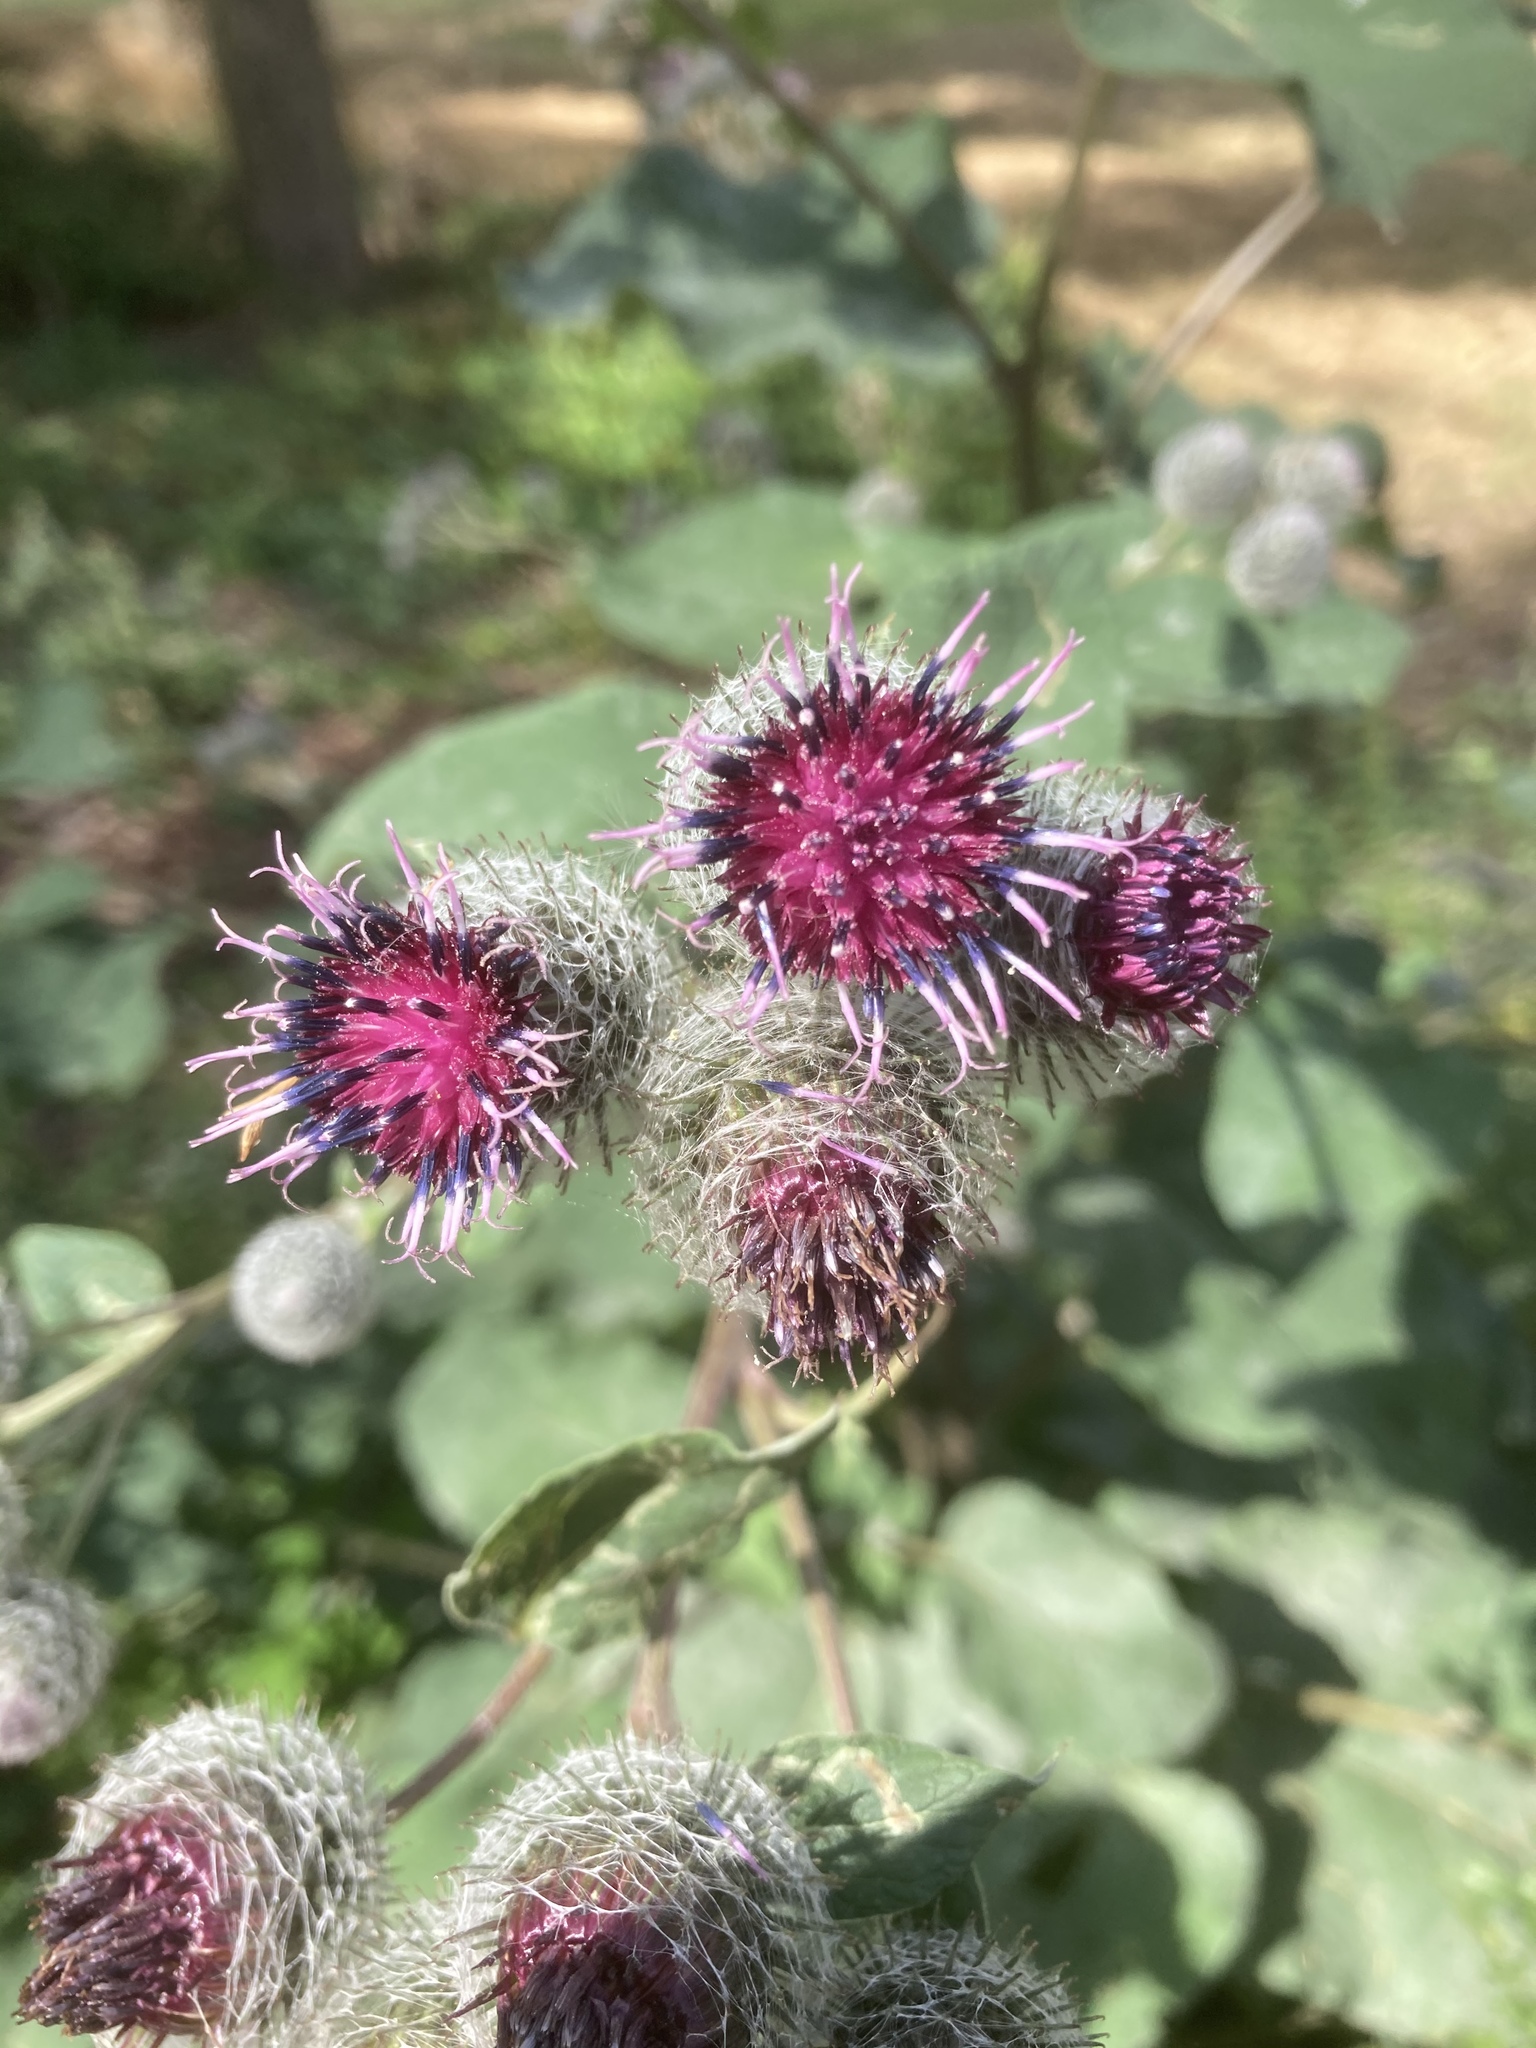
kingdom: Plantae
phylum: Tracheophyta
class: Magnoliopsida
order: Asterales
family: Asteraceae
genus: Arctium
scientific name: Arctium tomentosum
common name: Woolly burdock
